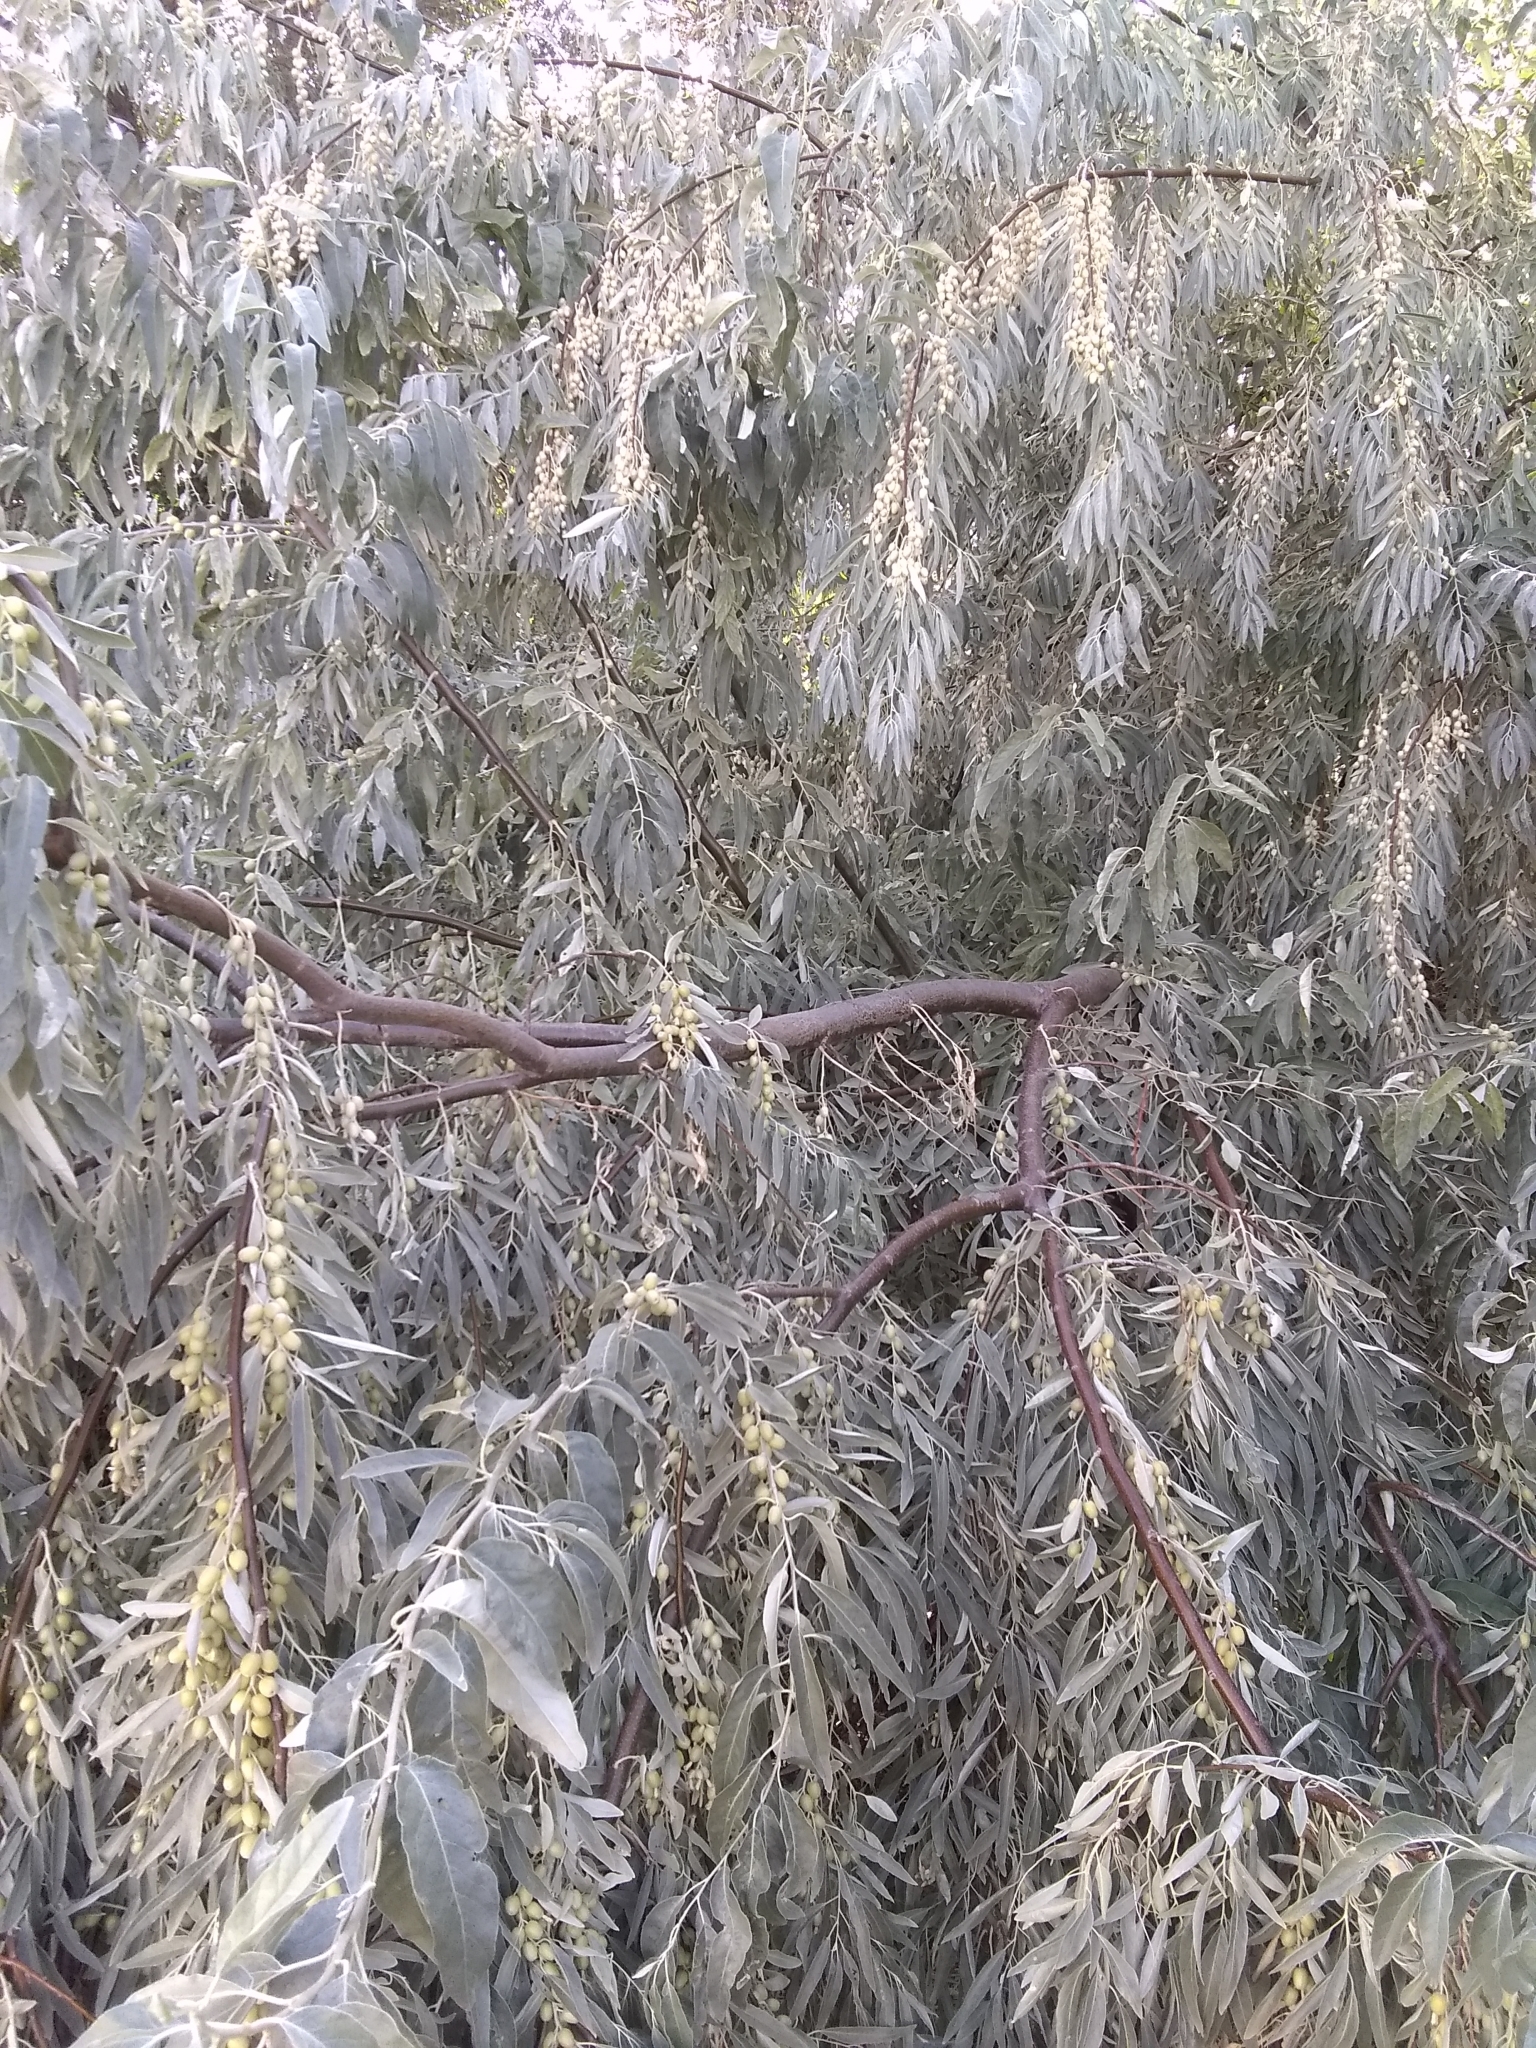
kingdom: Plantae
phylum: Tracheophyta
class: Magnoliopsida
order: Rosales
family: Elaeagnaceae
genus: Elaeagnus
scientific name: Elaeagnus angustifolia
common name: Russian olive
